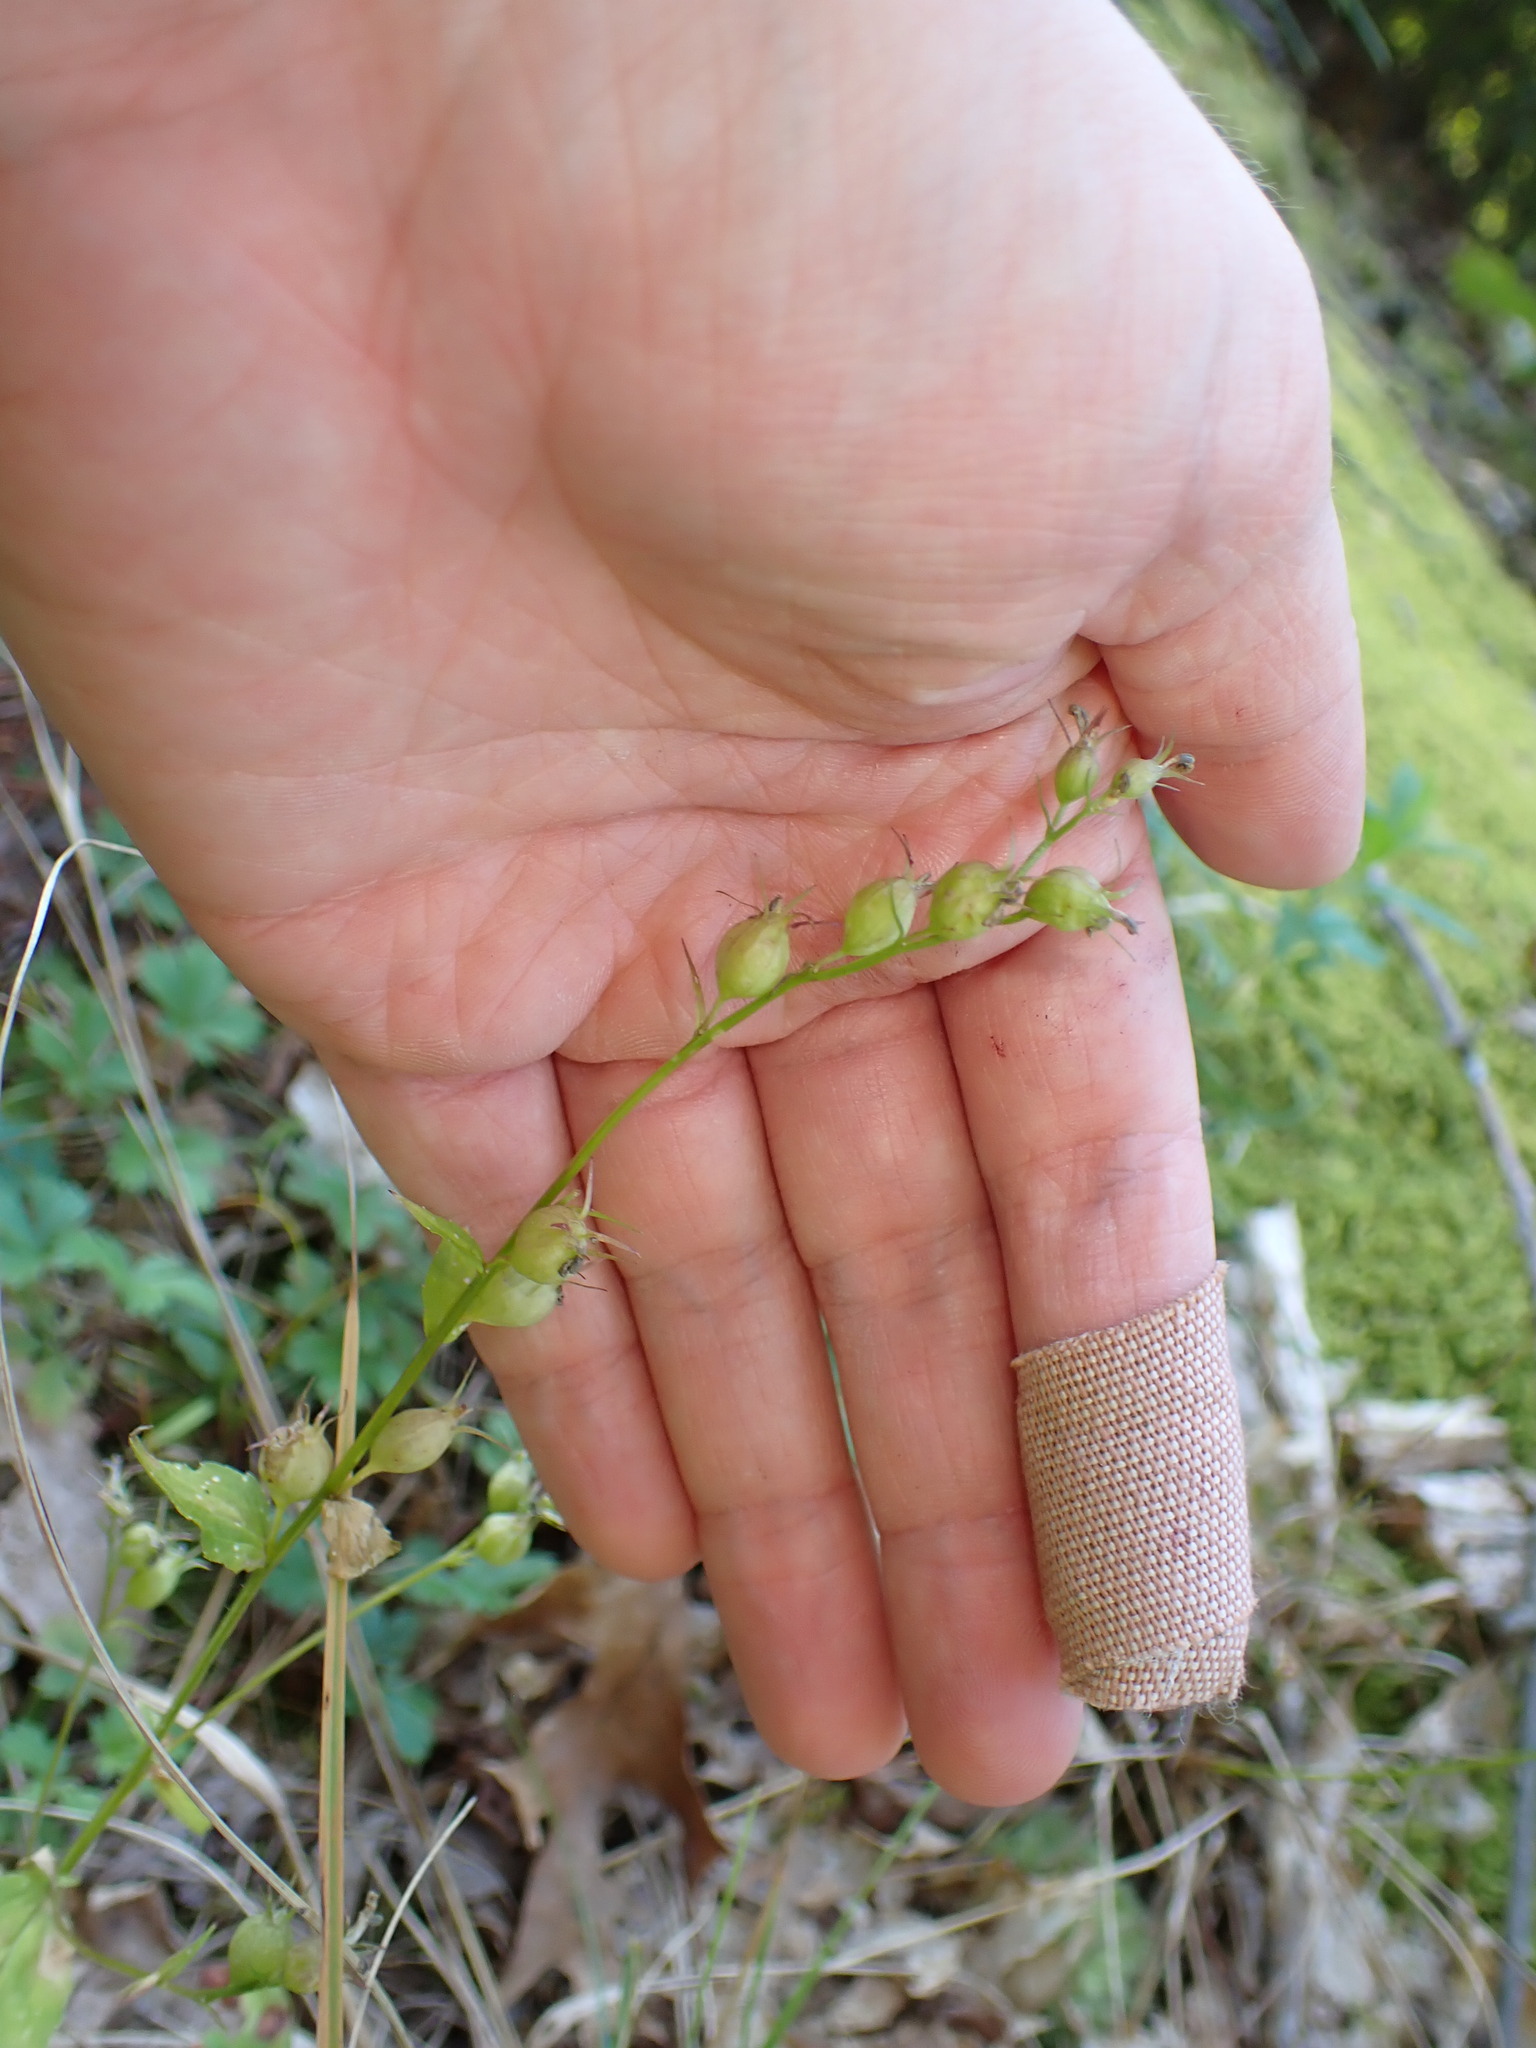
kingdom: Plantae
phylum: Tracheophyta
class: Magnoliopsida
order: Asterales
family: Campanulaceae
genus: Lobelia
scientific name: Lobelia inflata
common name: Indian tobacco
